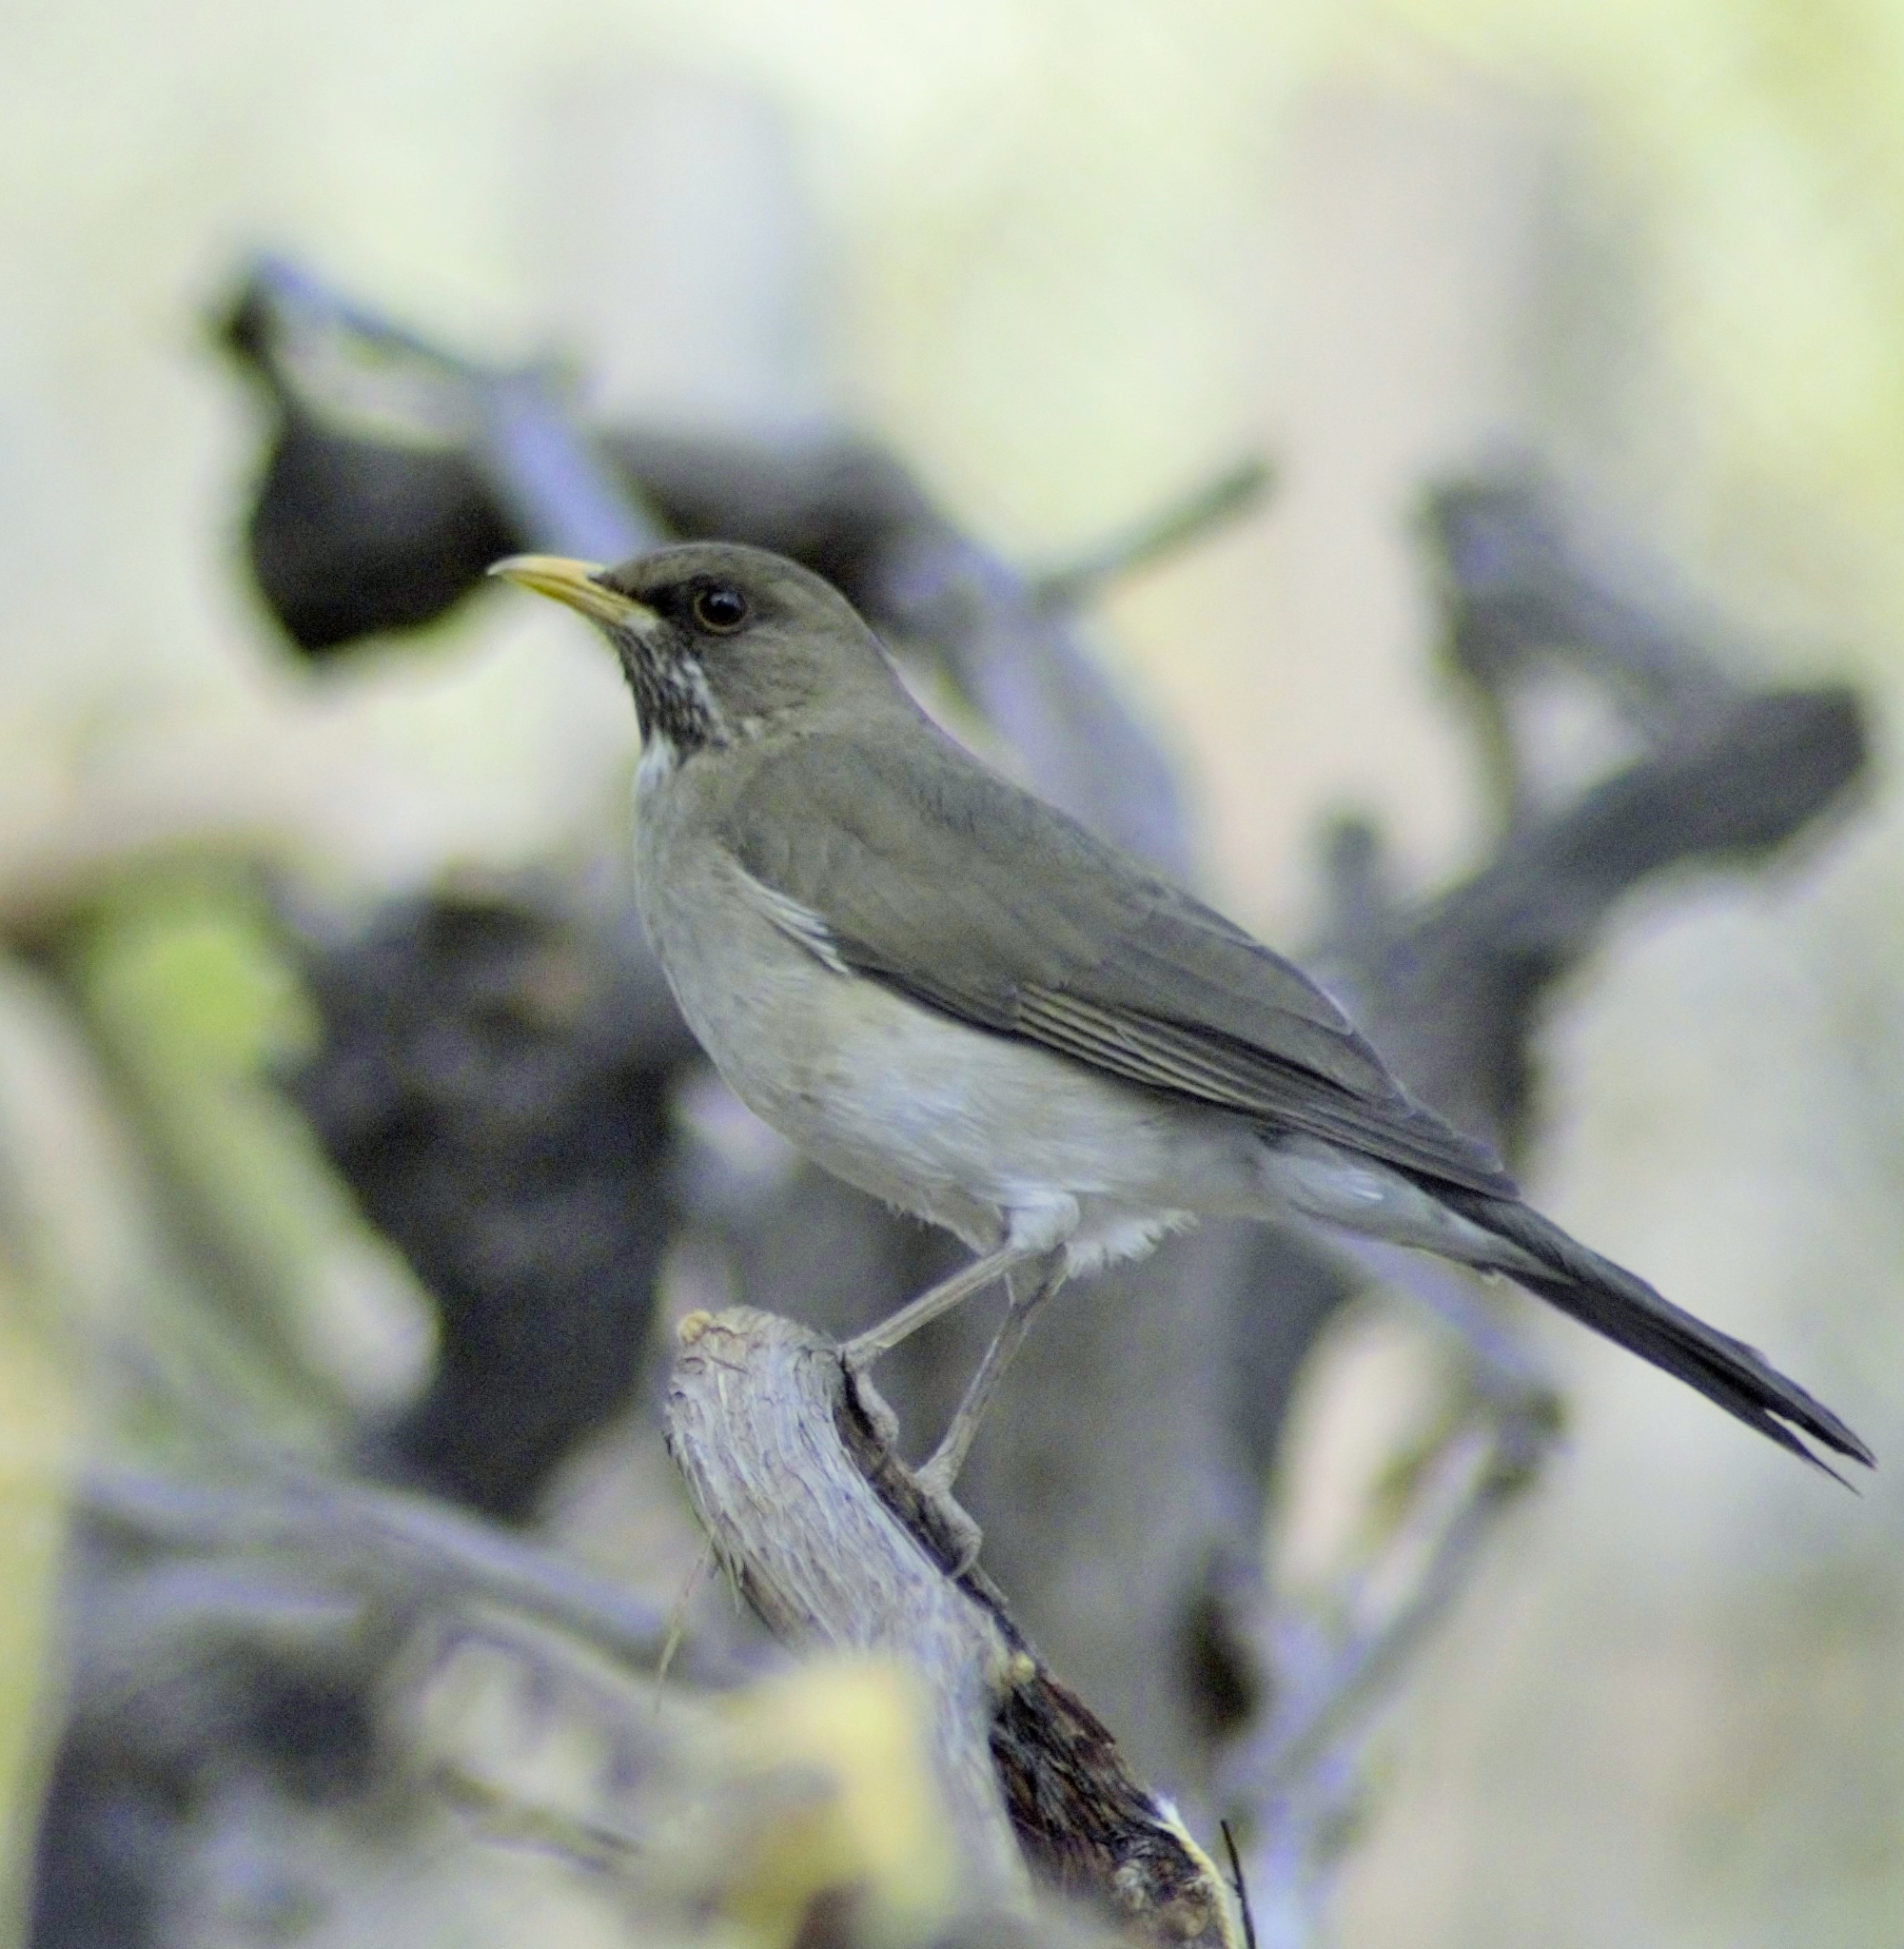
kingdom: Animalia
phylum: Chordata
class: Aves
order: Passeriformes
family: Turdidae
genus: Turdus
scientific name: Turdus amaurochalinus
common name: Creamy-bellied thrush
